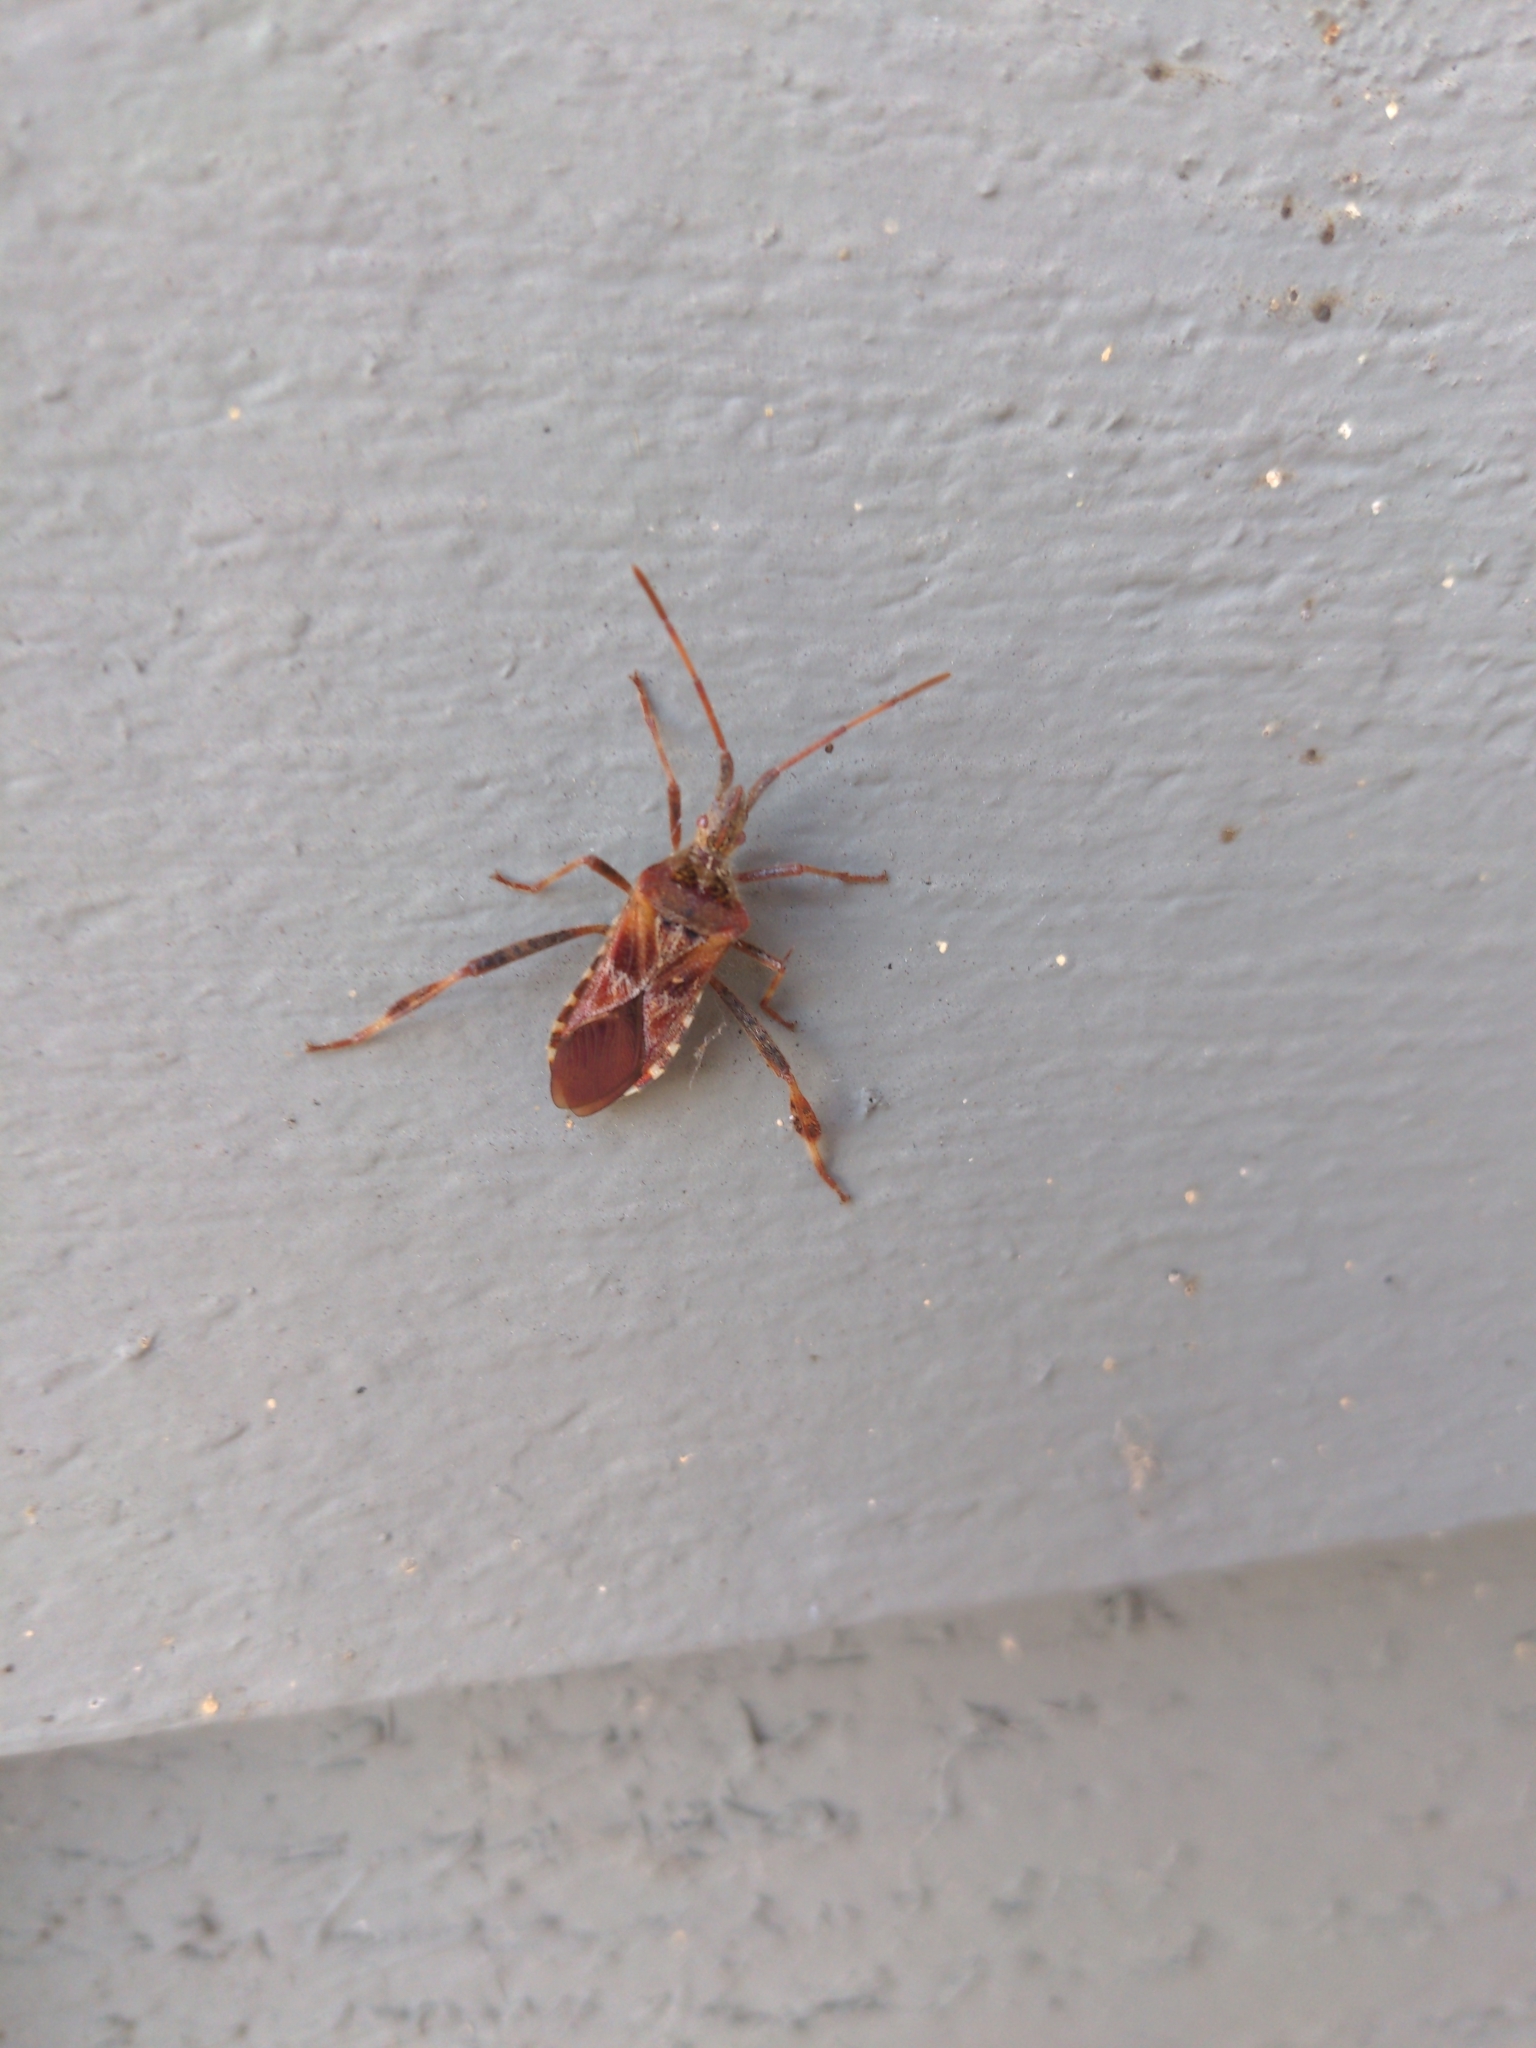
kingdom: Animalia
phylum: Arthropoda
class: Insecta
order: Hemiptera
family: Coreidae
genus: Leptoglossus
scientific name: Leptoglossus occidentalis
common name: Western conifer-seed bug
